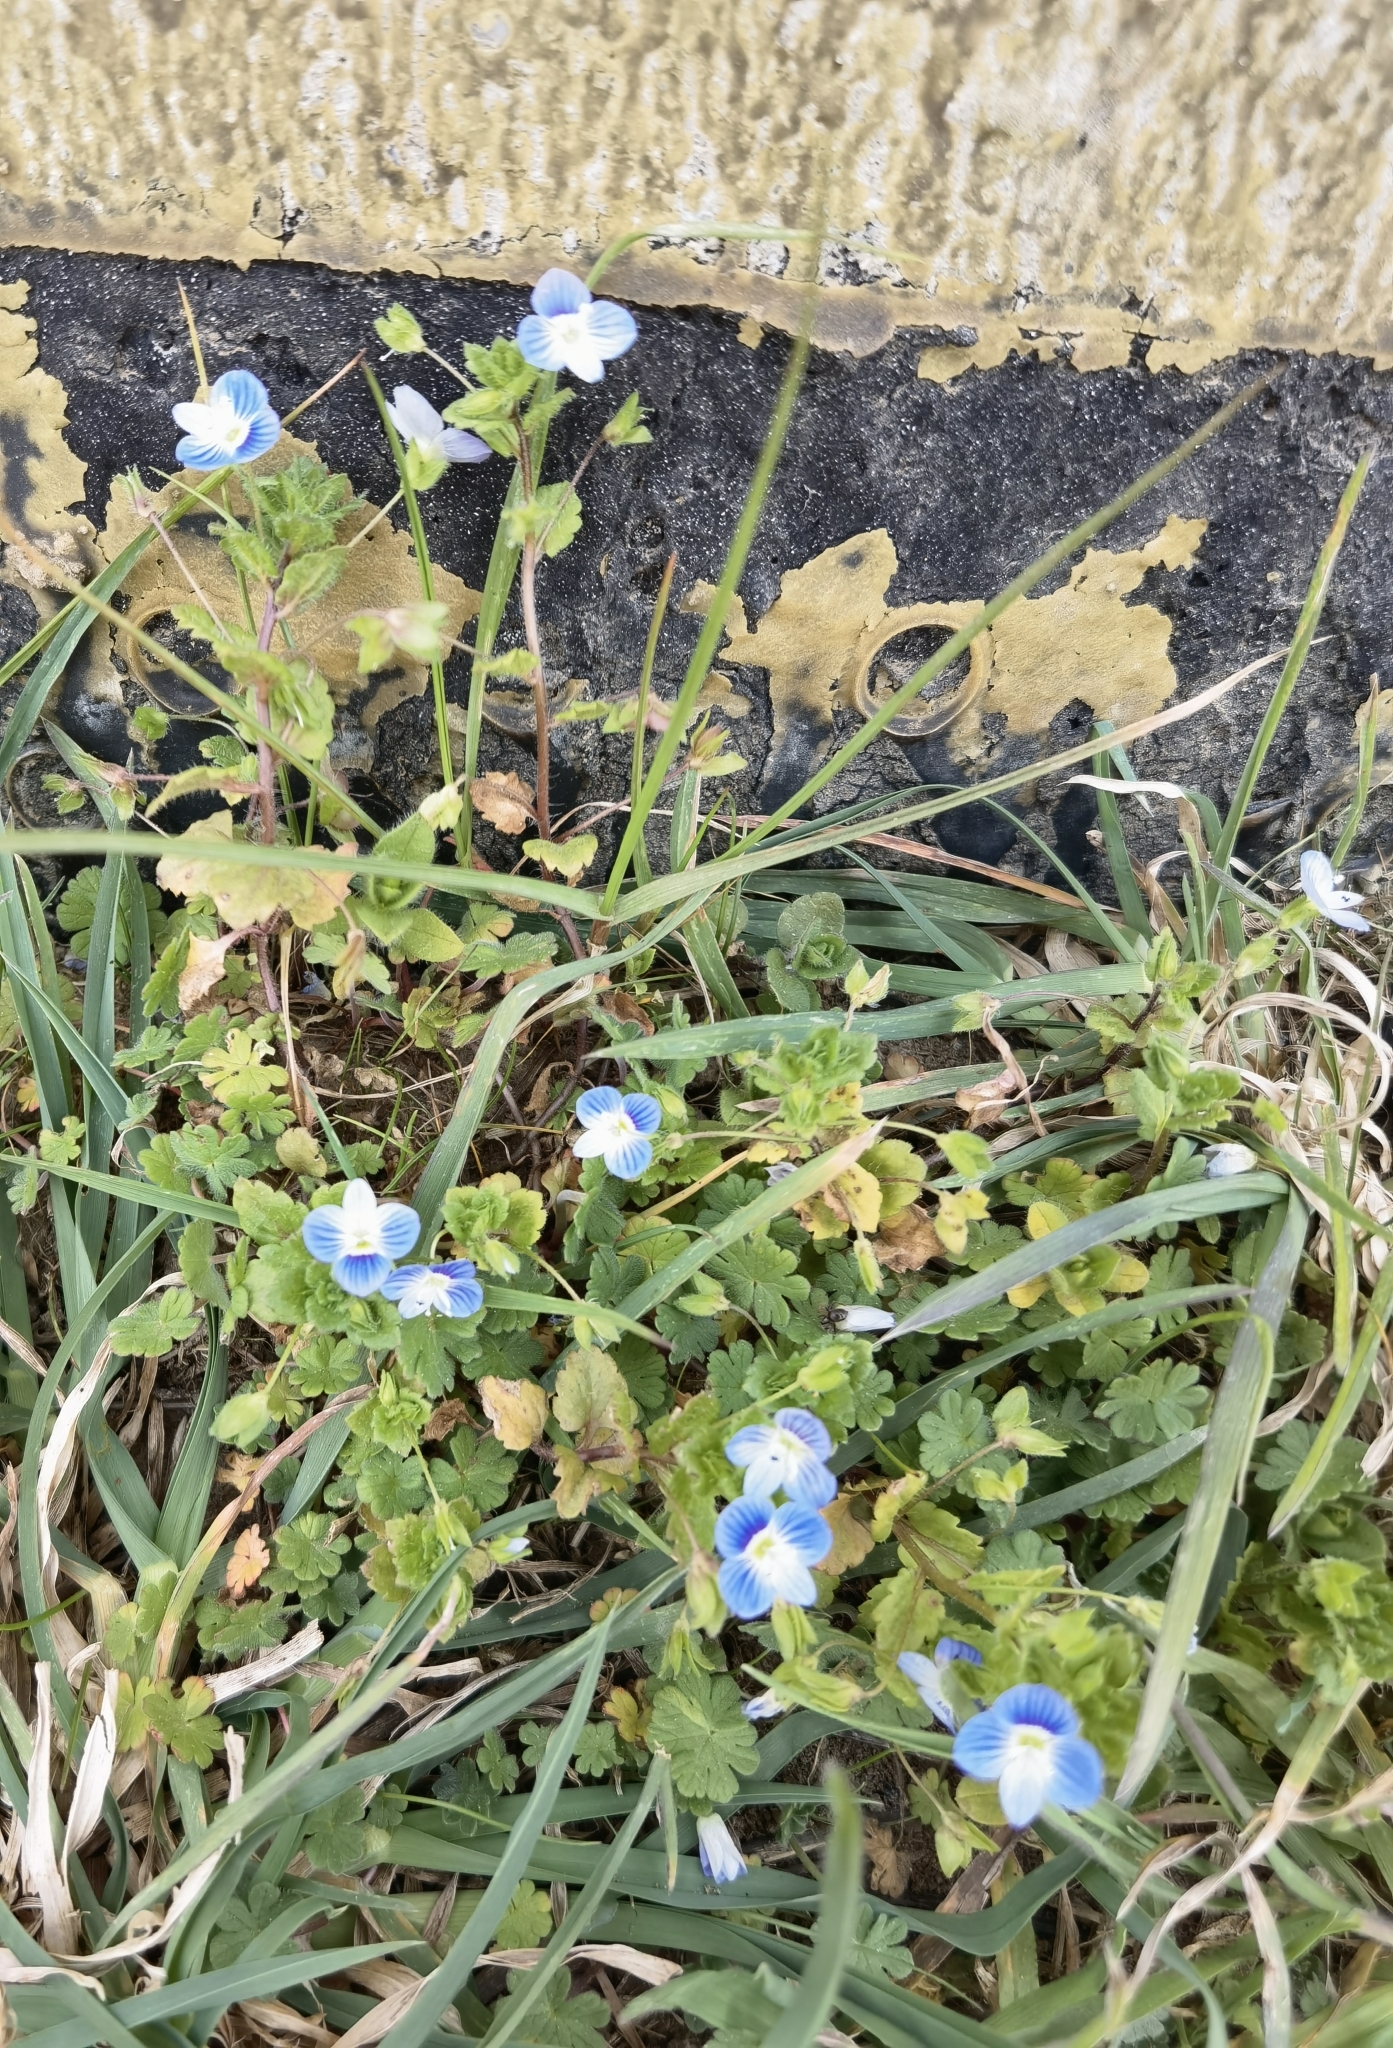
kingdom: Plantae
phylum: Tracheophyta
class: Magnoliopsida
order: Lamiales
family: Plantaginaceae
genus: Veronica
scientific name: Veronica persica
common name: Common field-speedwell
